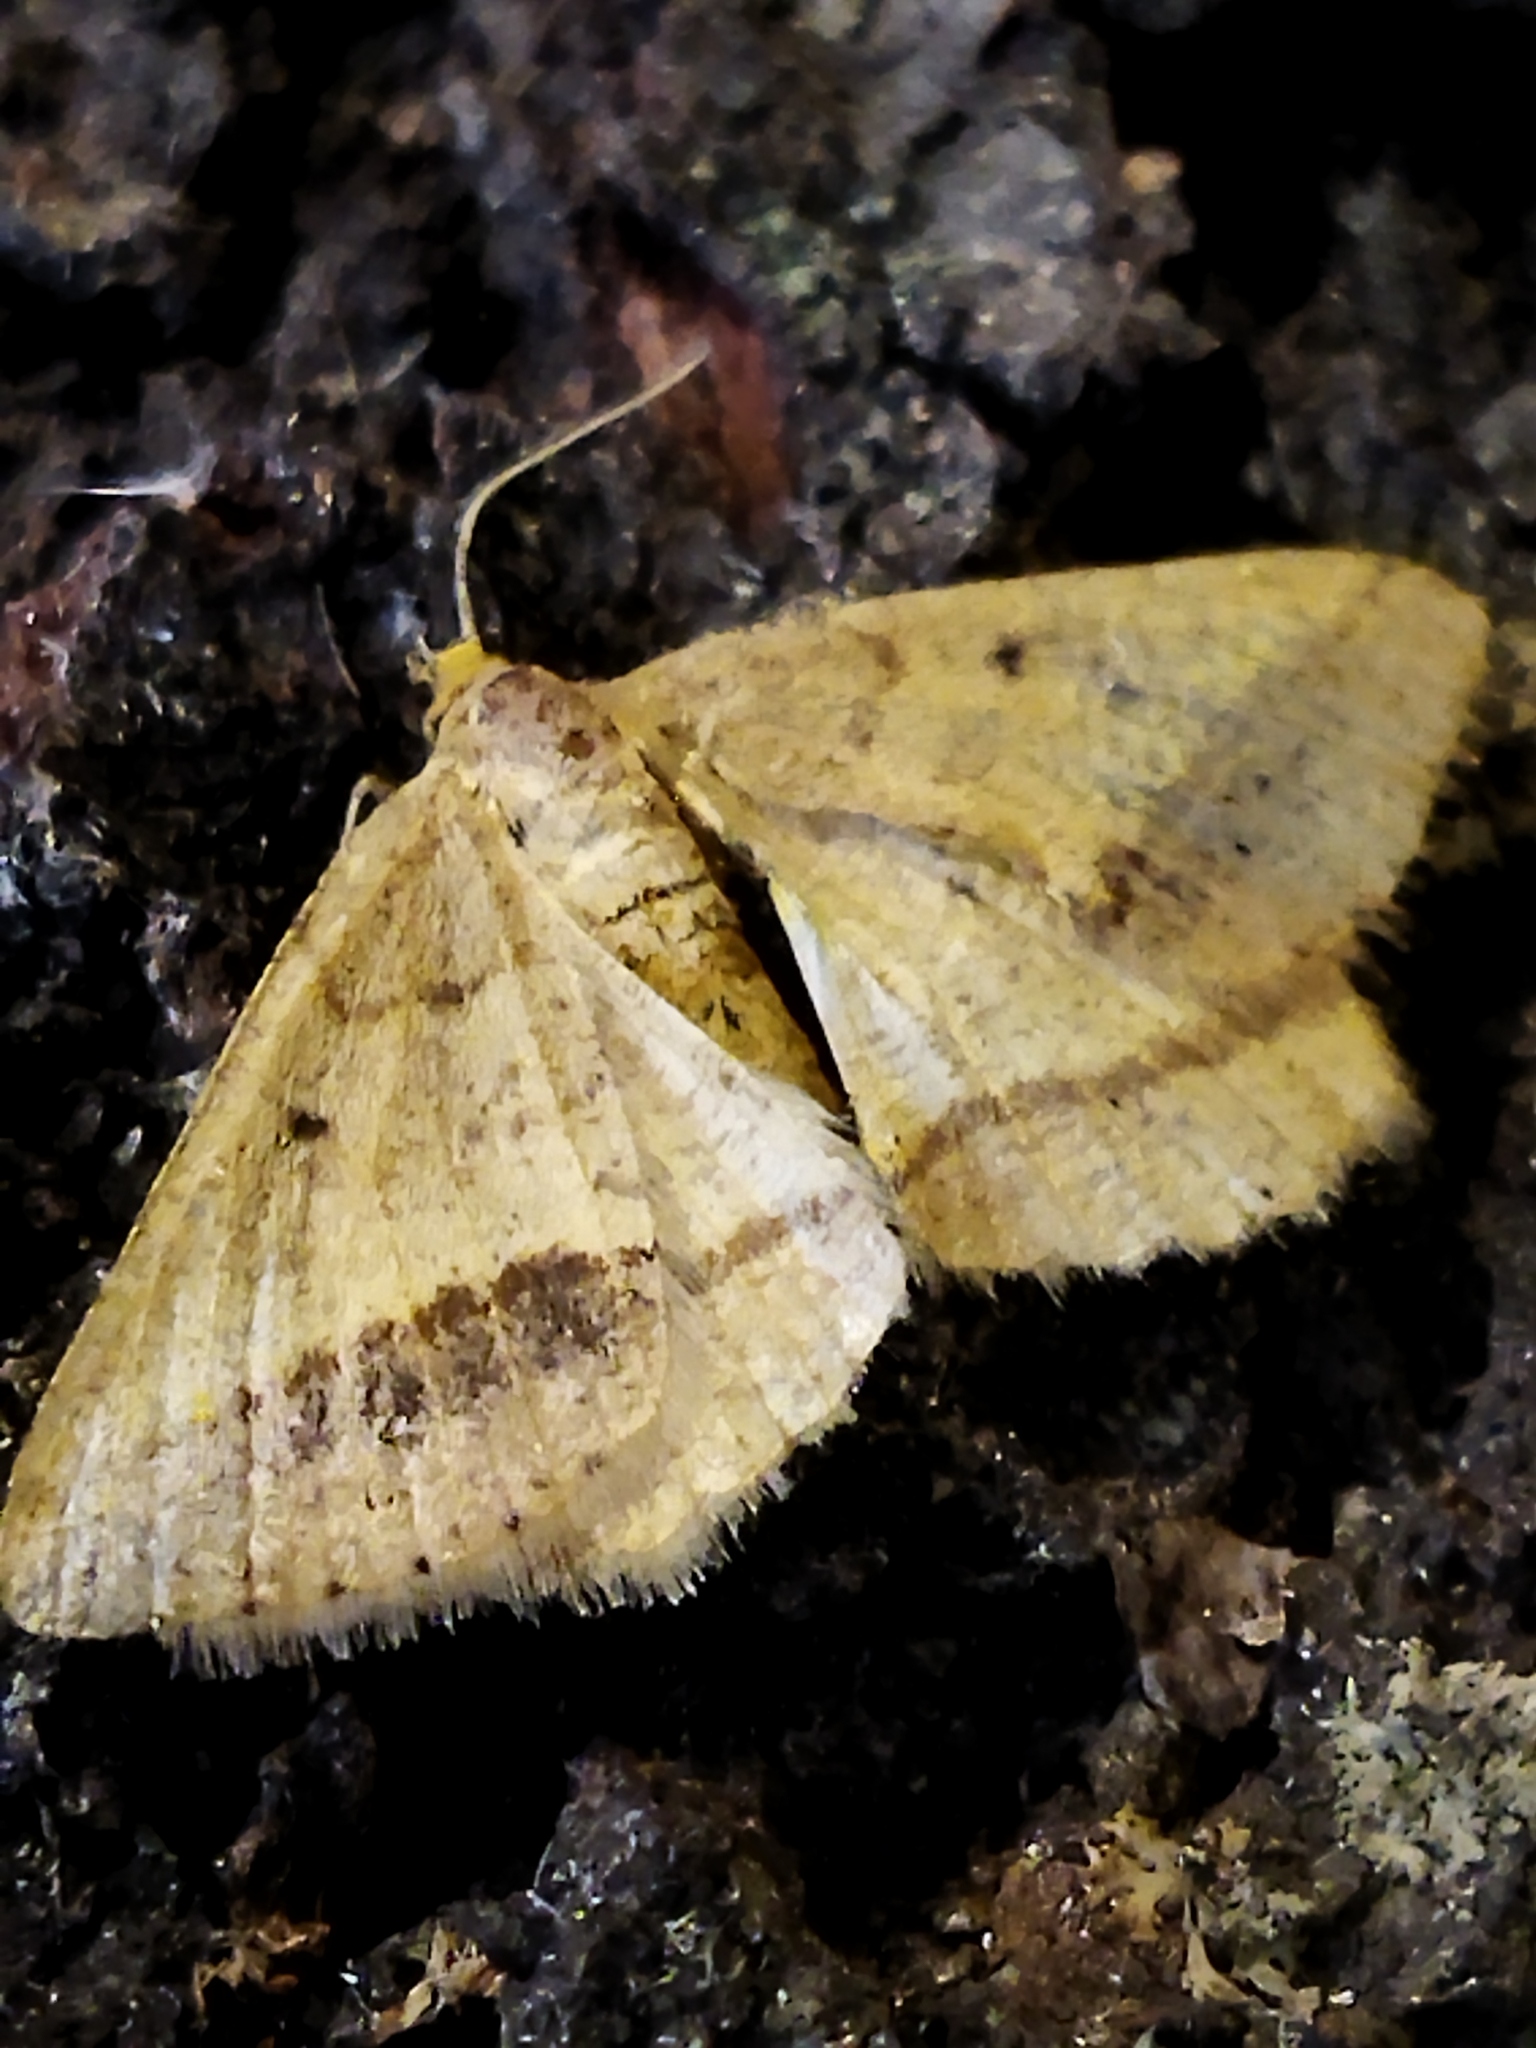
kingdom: Animalia
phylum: Arthropoda
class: Insecta
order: Lepidoptera
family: Geometridae
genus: Tephrina
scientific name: Tephrina arenacearia
